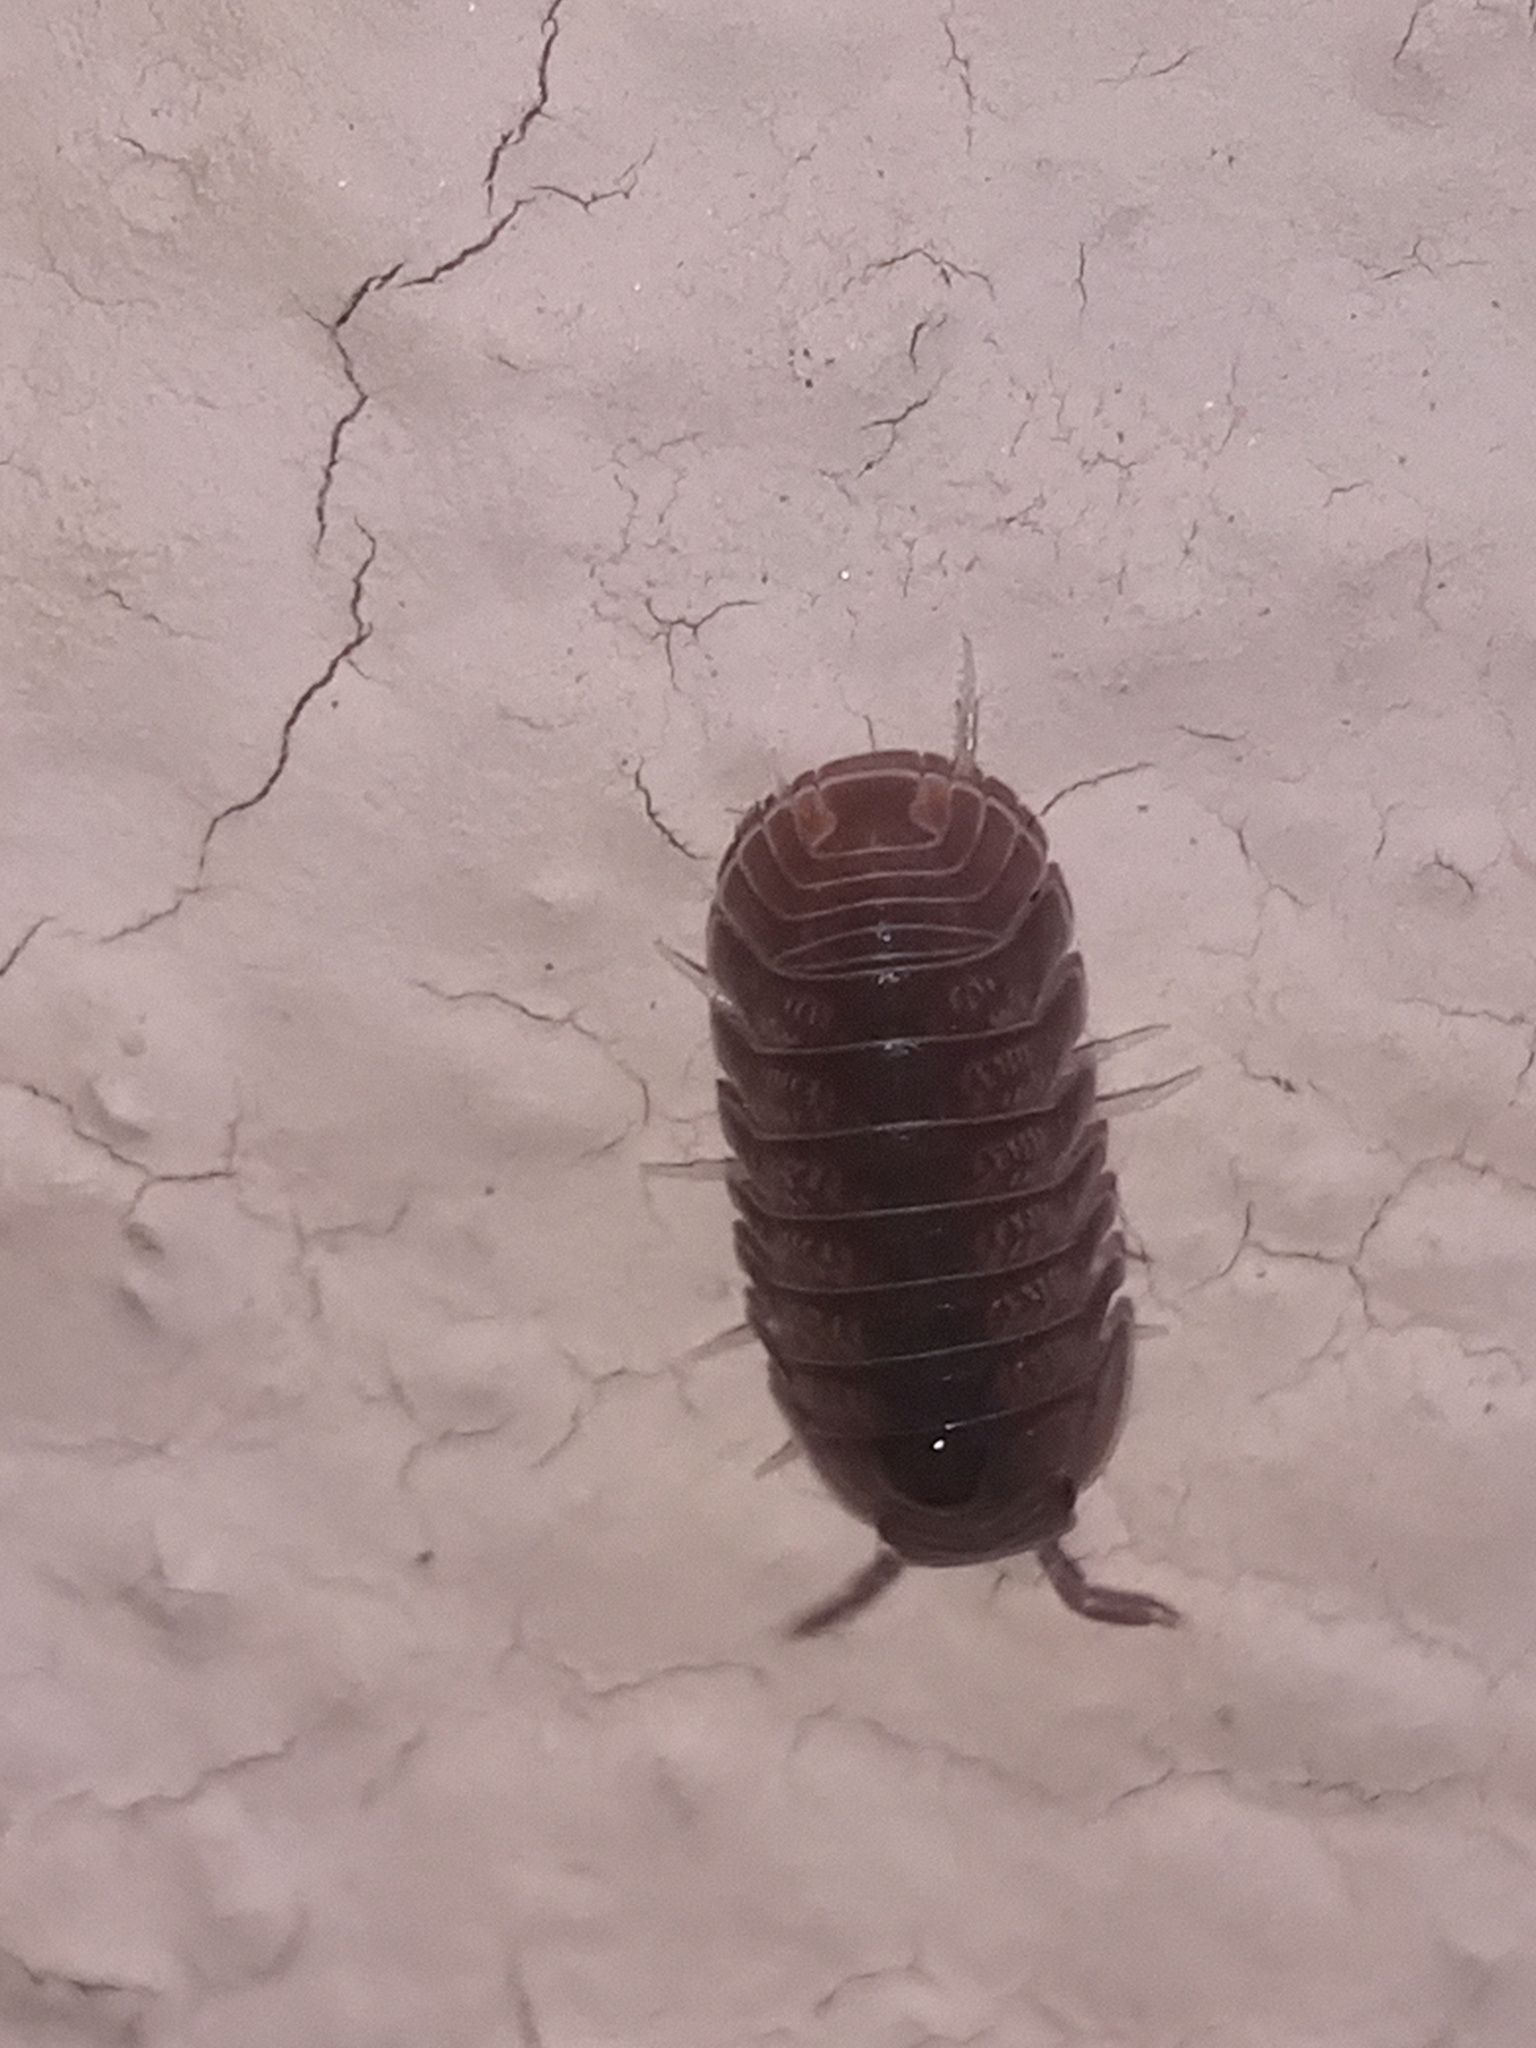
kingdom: Animalia
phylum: Arthropoda
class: Malacostraca
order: Isopoda
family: Armadillidae
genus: Cubaris
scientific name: Cubaris murina
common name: Pillbug
